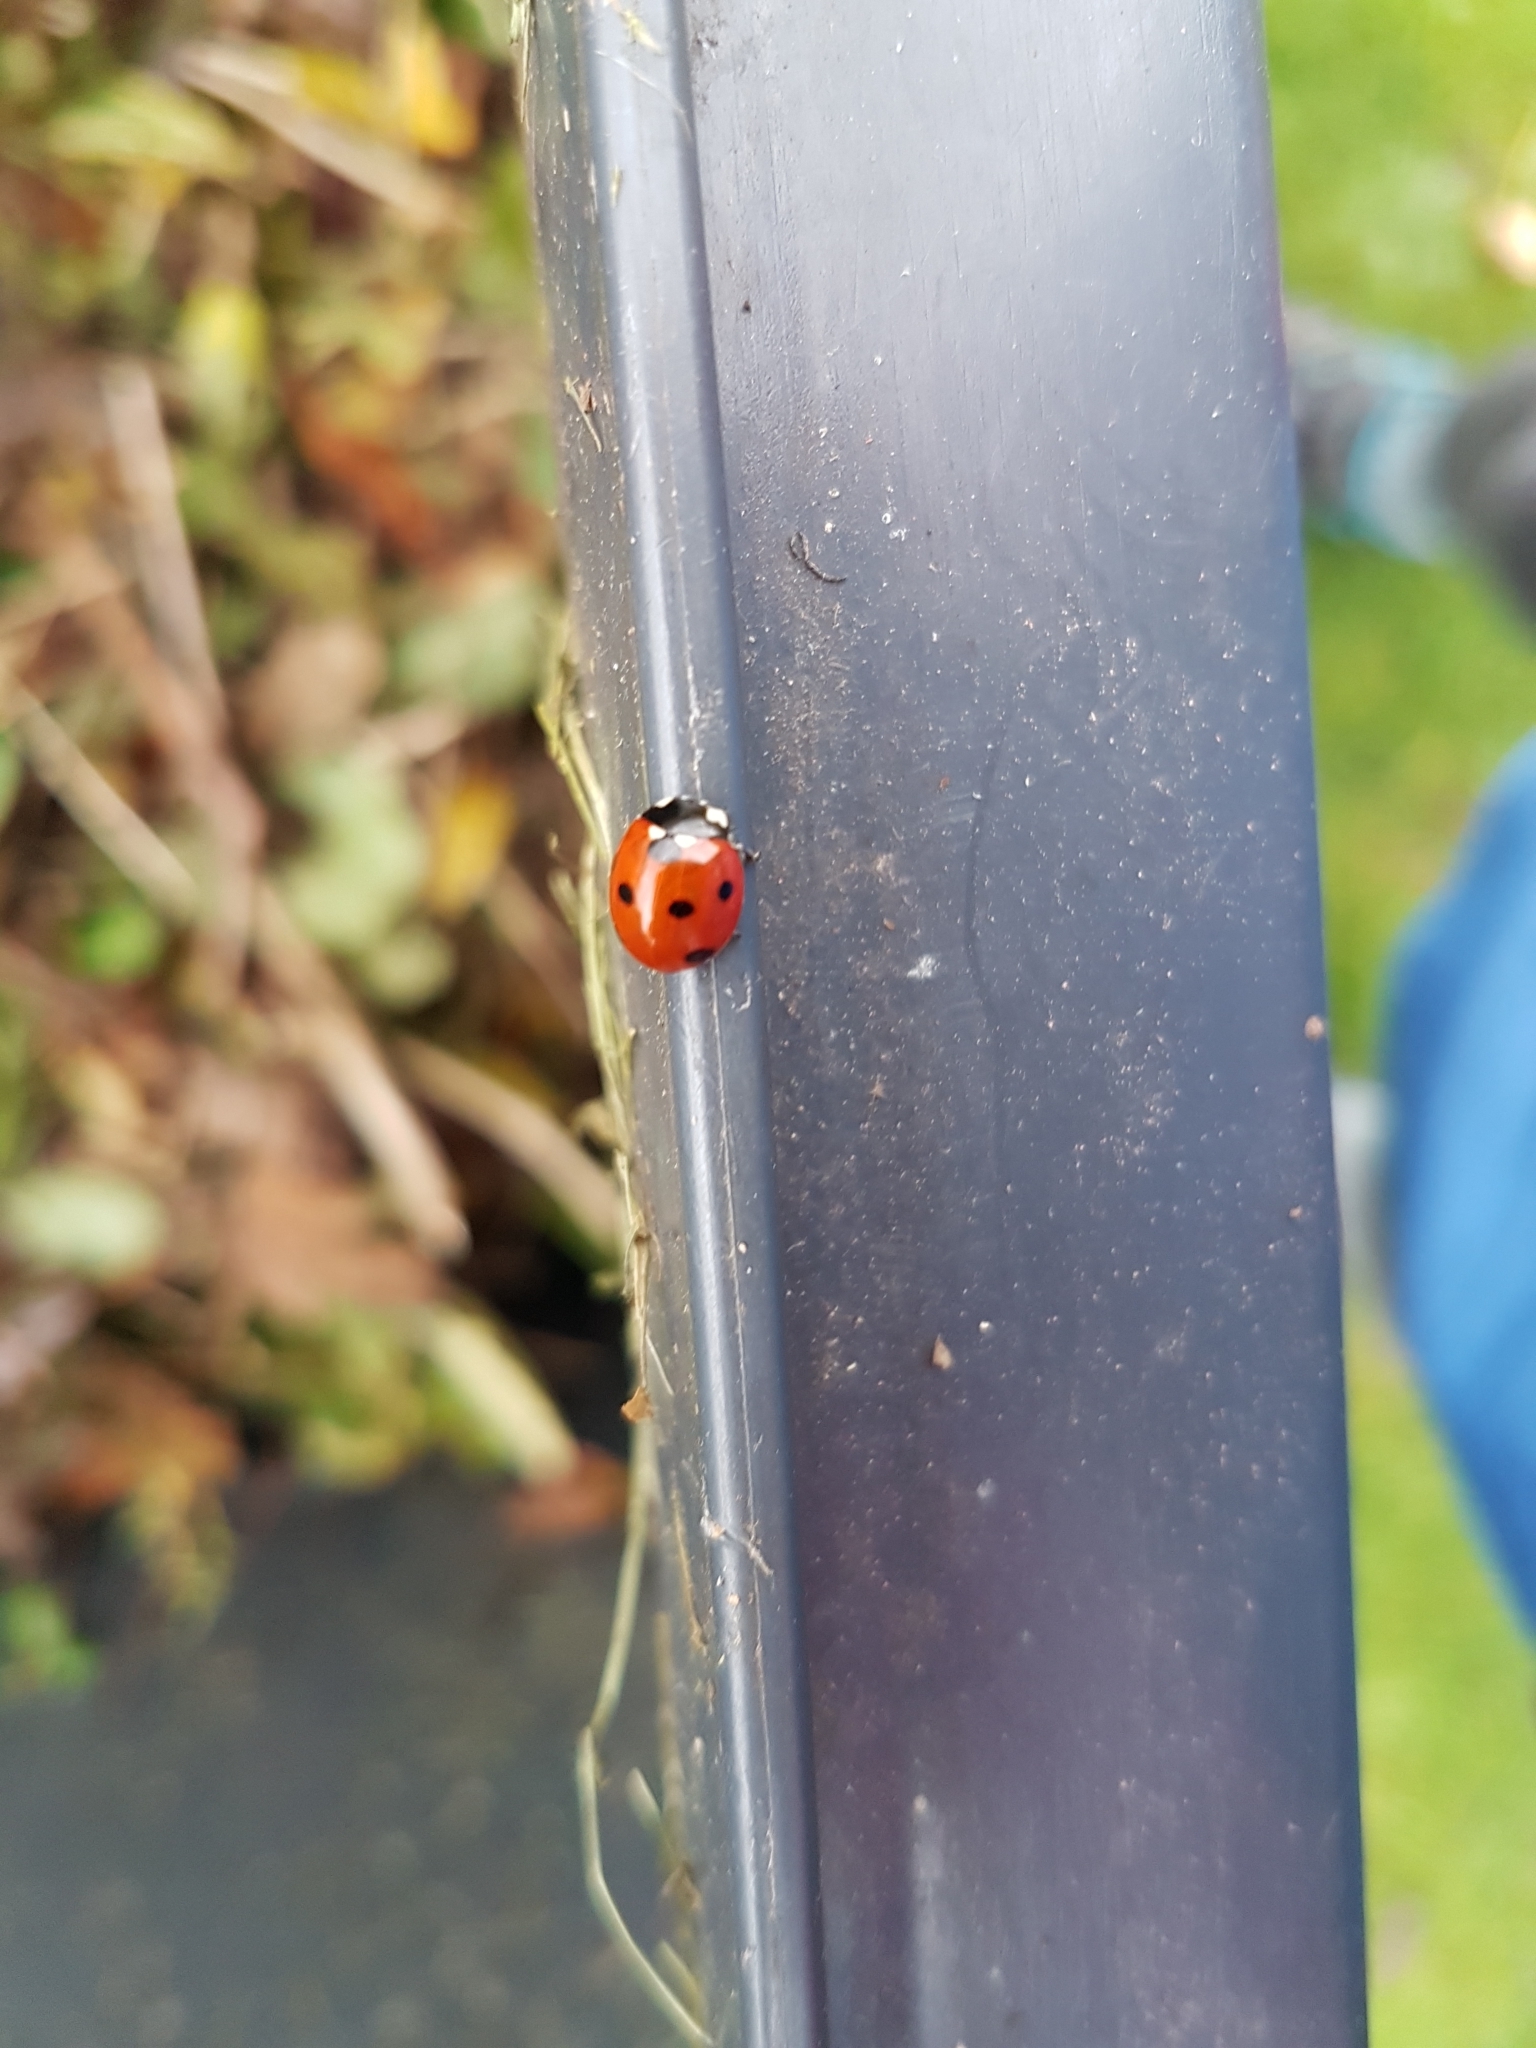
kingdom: Animalia
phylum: Arthropoda
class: Insecta
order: Coleoptera
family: Coccinellidae
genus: Coccinella
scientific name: Coccinella septempunctata
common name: Sevenspotted lady beetle
